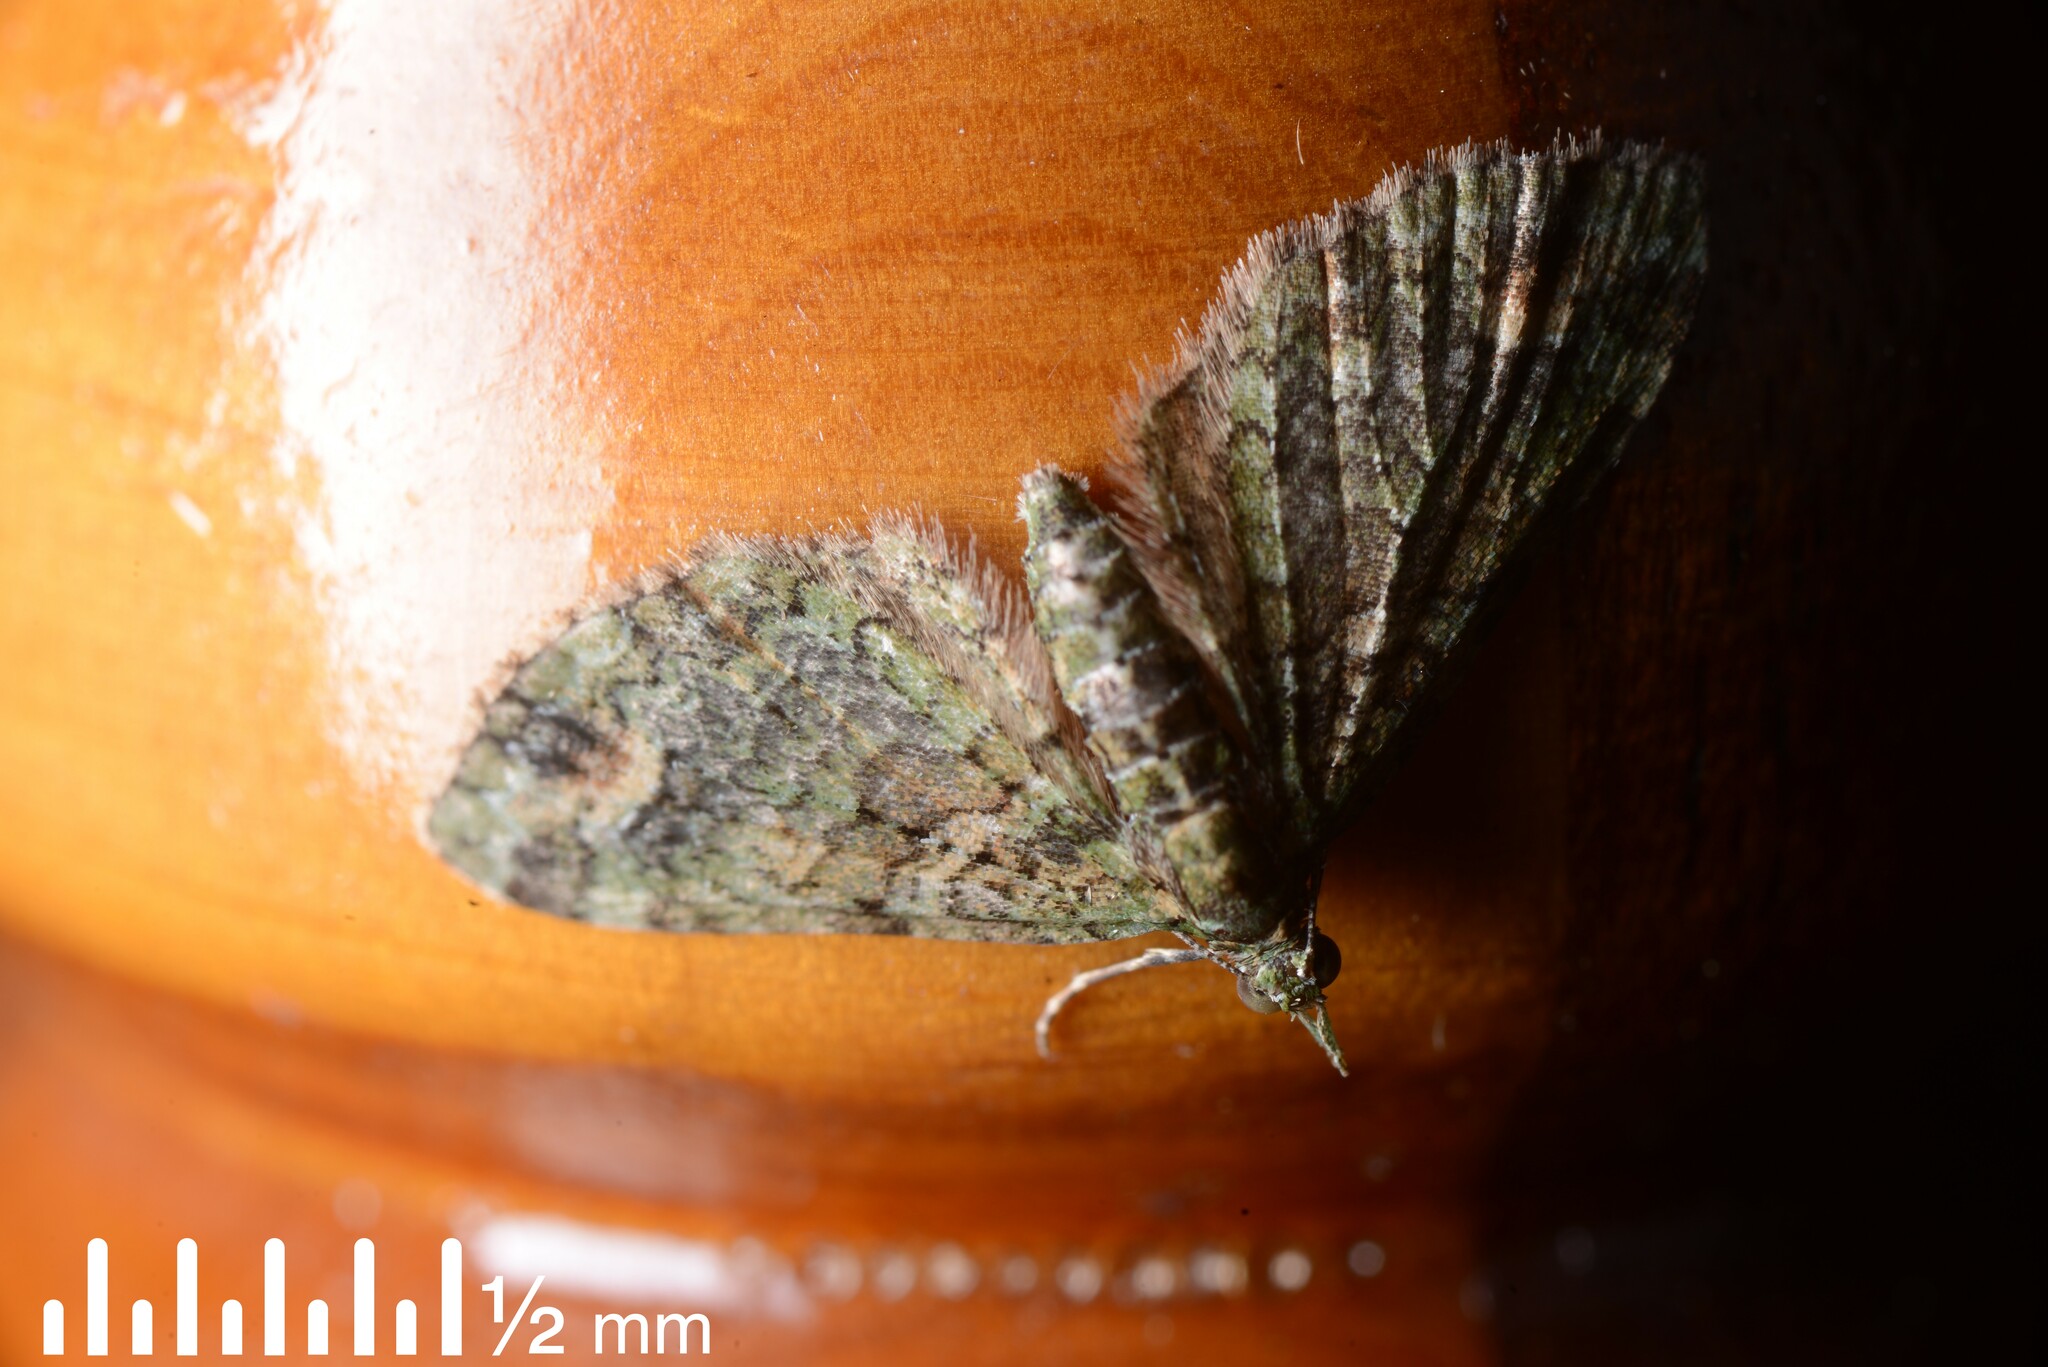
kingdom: Animalia
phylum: Arthropoda
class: Insecta
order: Lepidoptera
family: Geometridae
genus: Idaea
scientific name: Idaea mutanda
